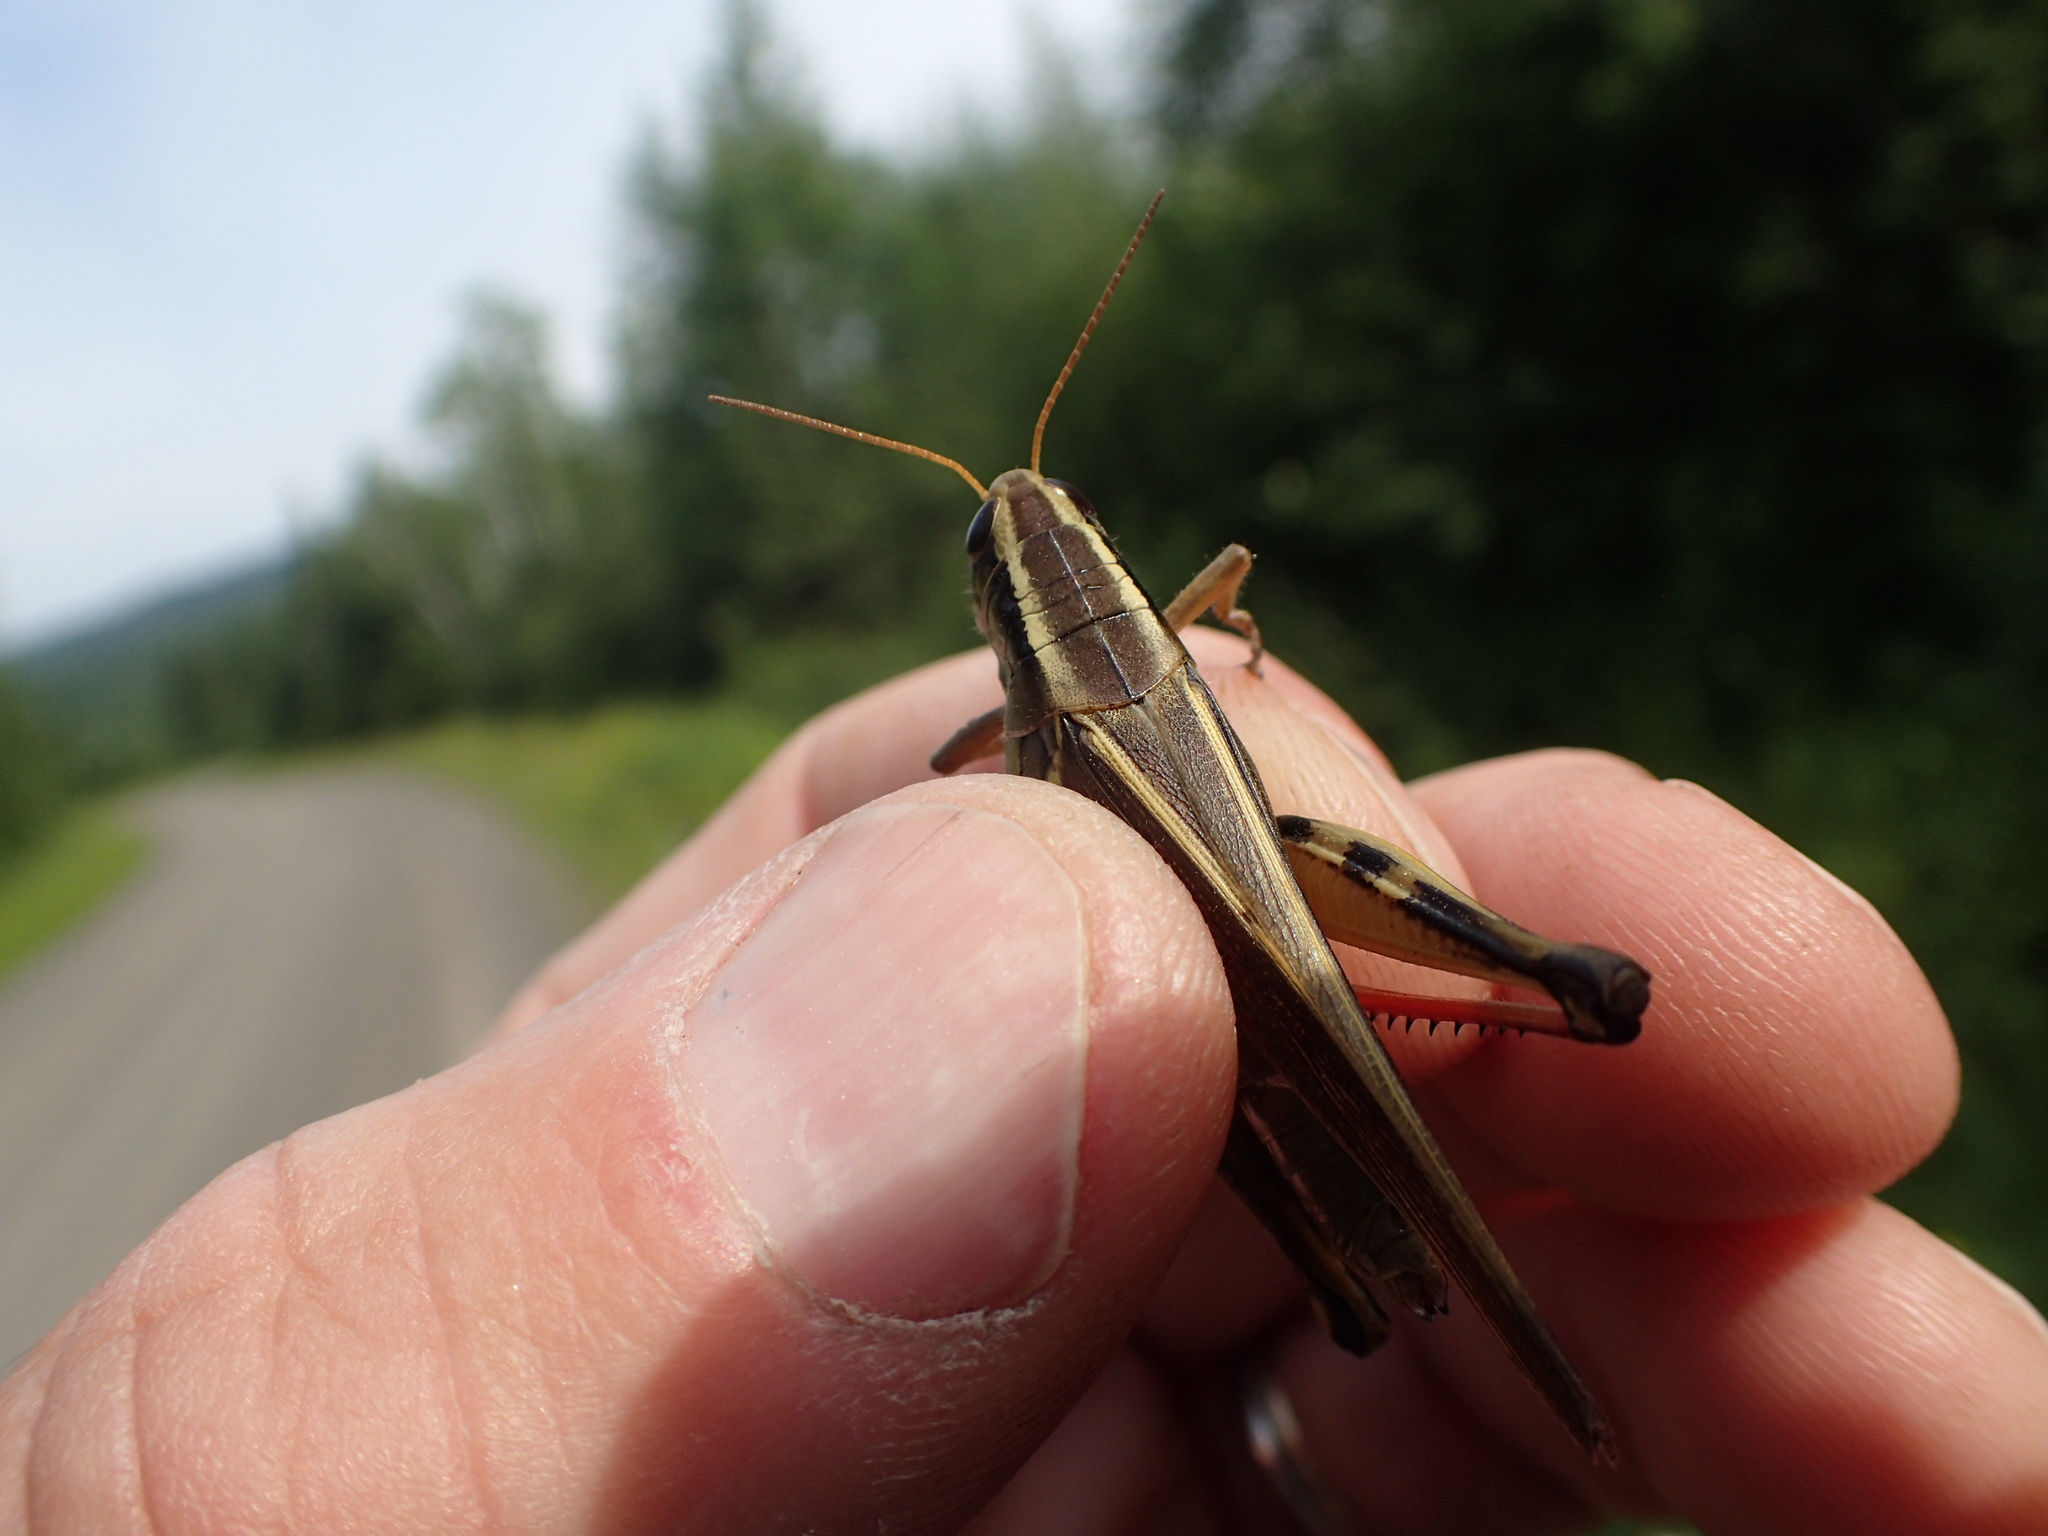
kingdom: Animalia
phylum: Arthropoda
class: Insecta
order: Orthoptera
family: Acrididae
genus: Melanoplus
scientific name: Melanoplus bivittatus
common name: Two-striped grasshopper
